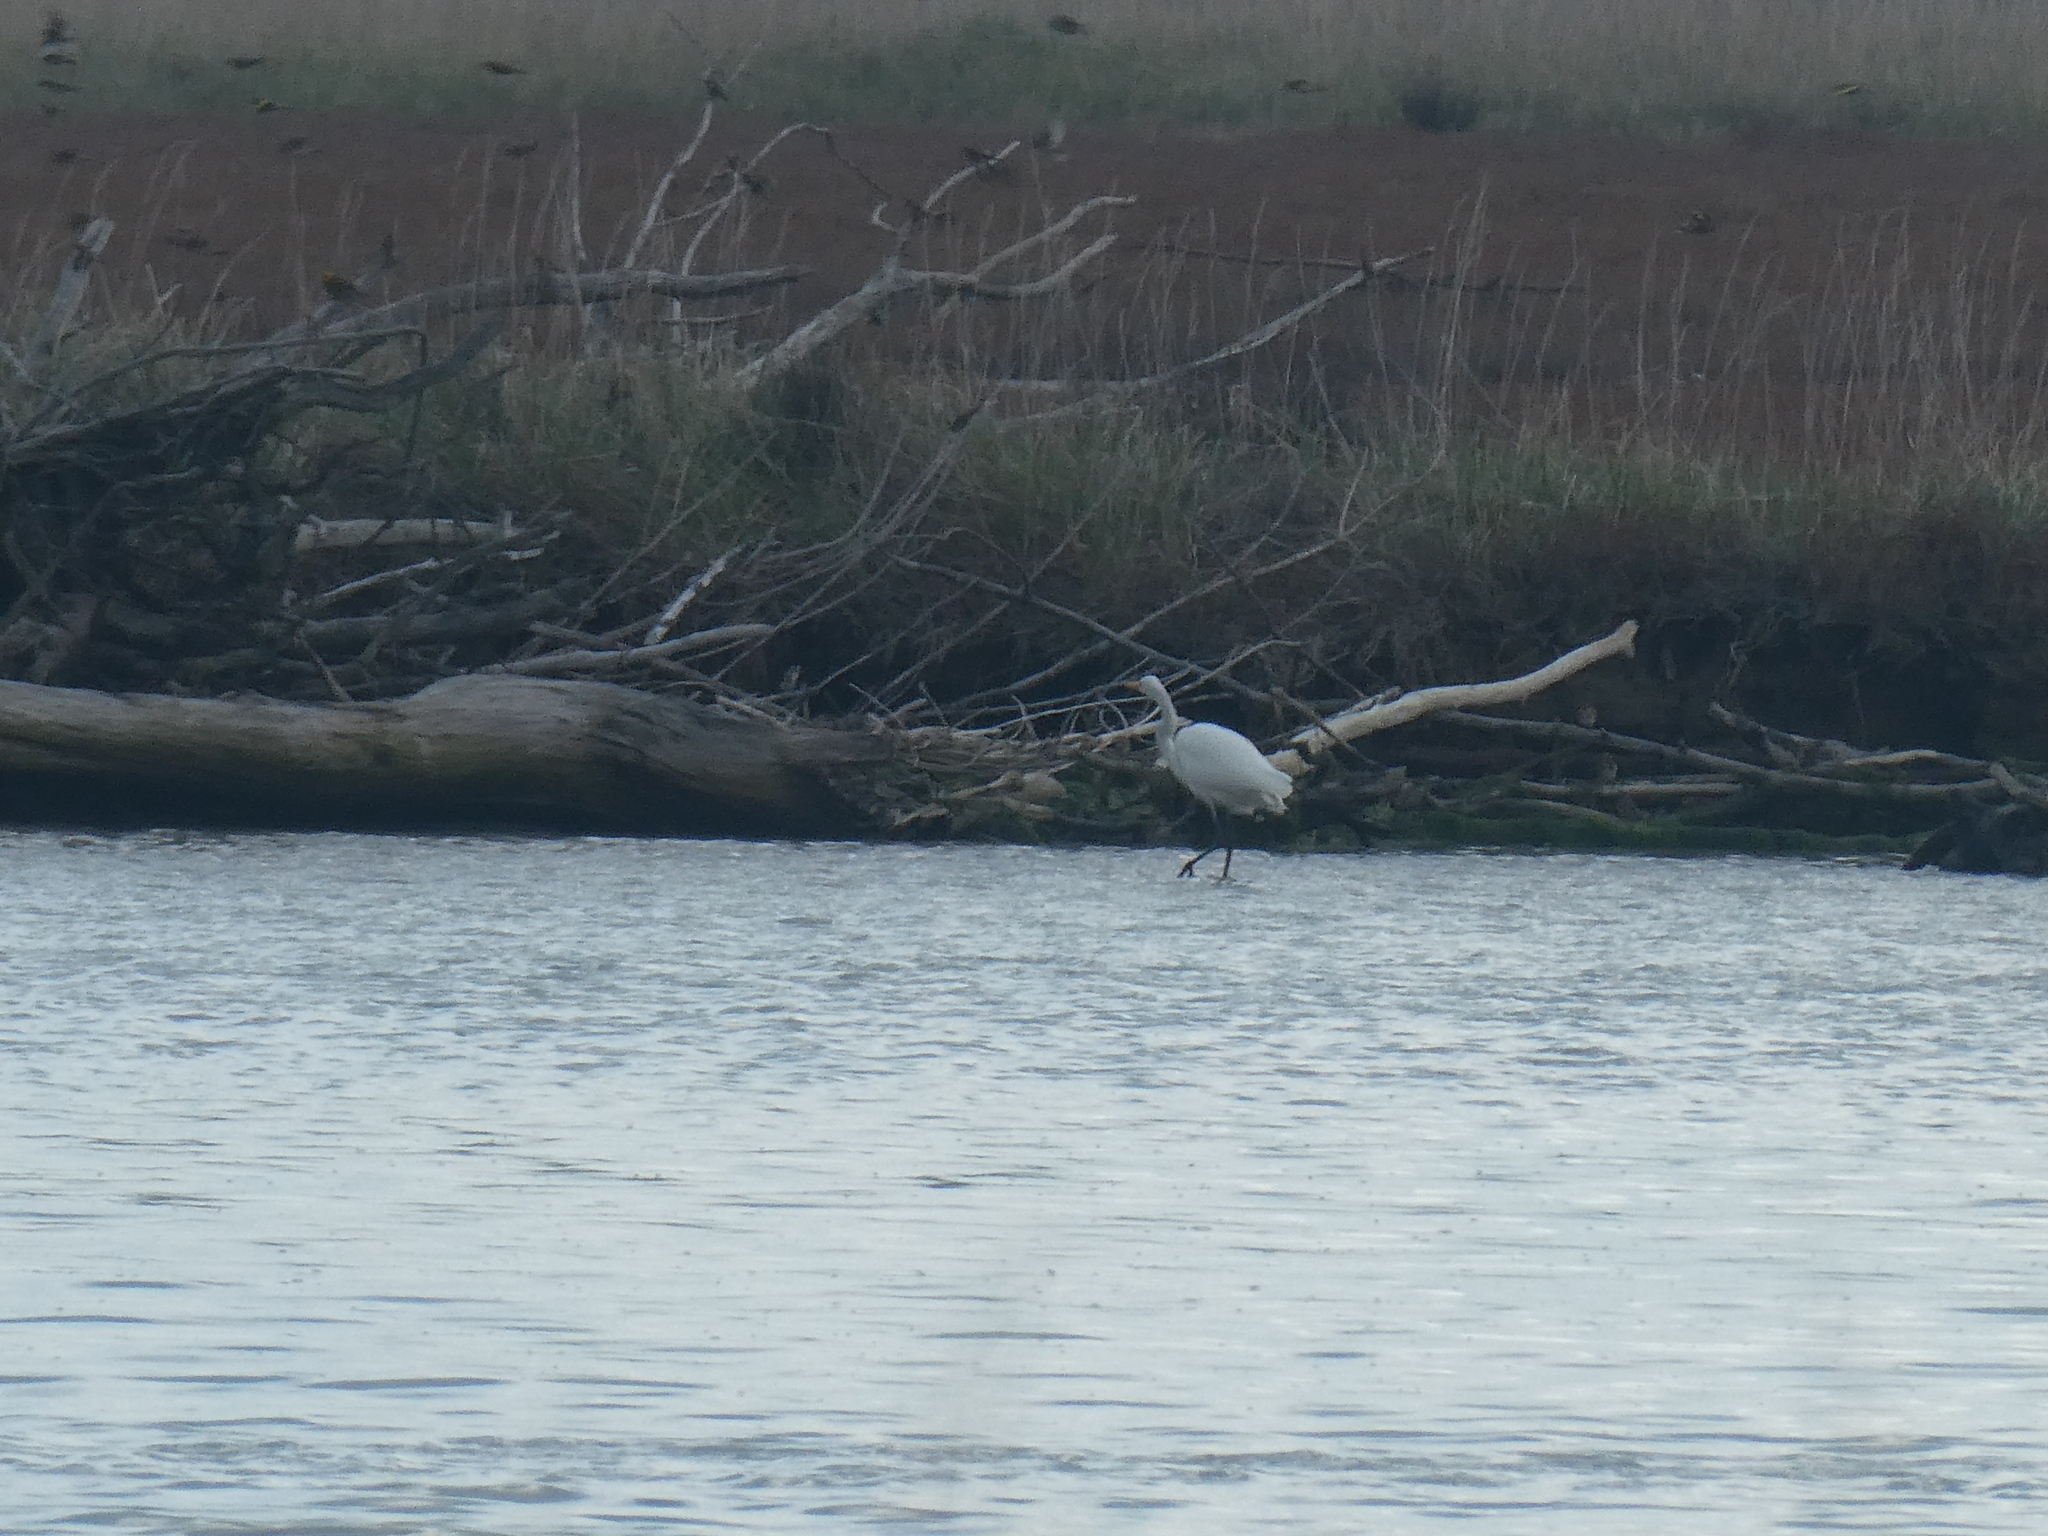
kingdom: Animalia
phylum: Chordata
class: Aves
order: Pelecaniformes
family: Ardeidae
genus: Ardea
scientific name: Ardea modesta
